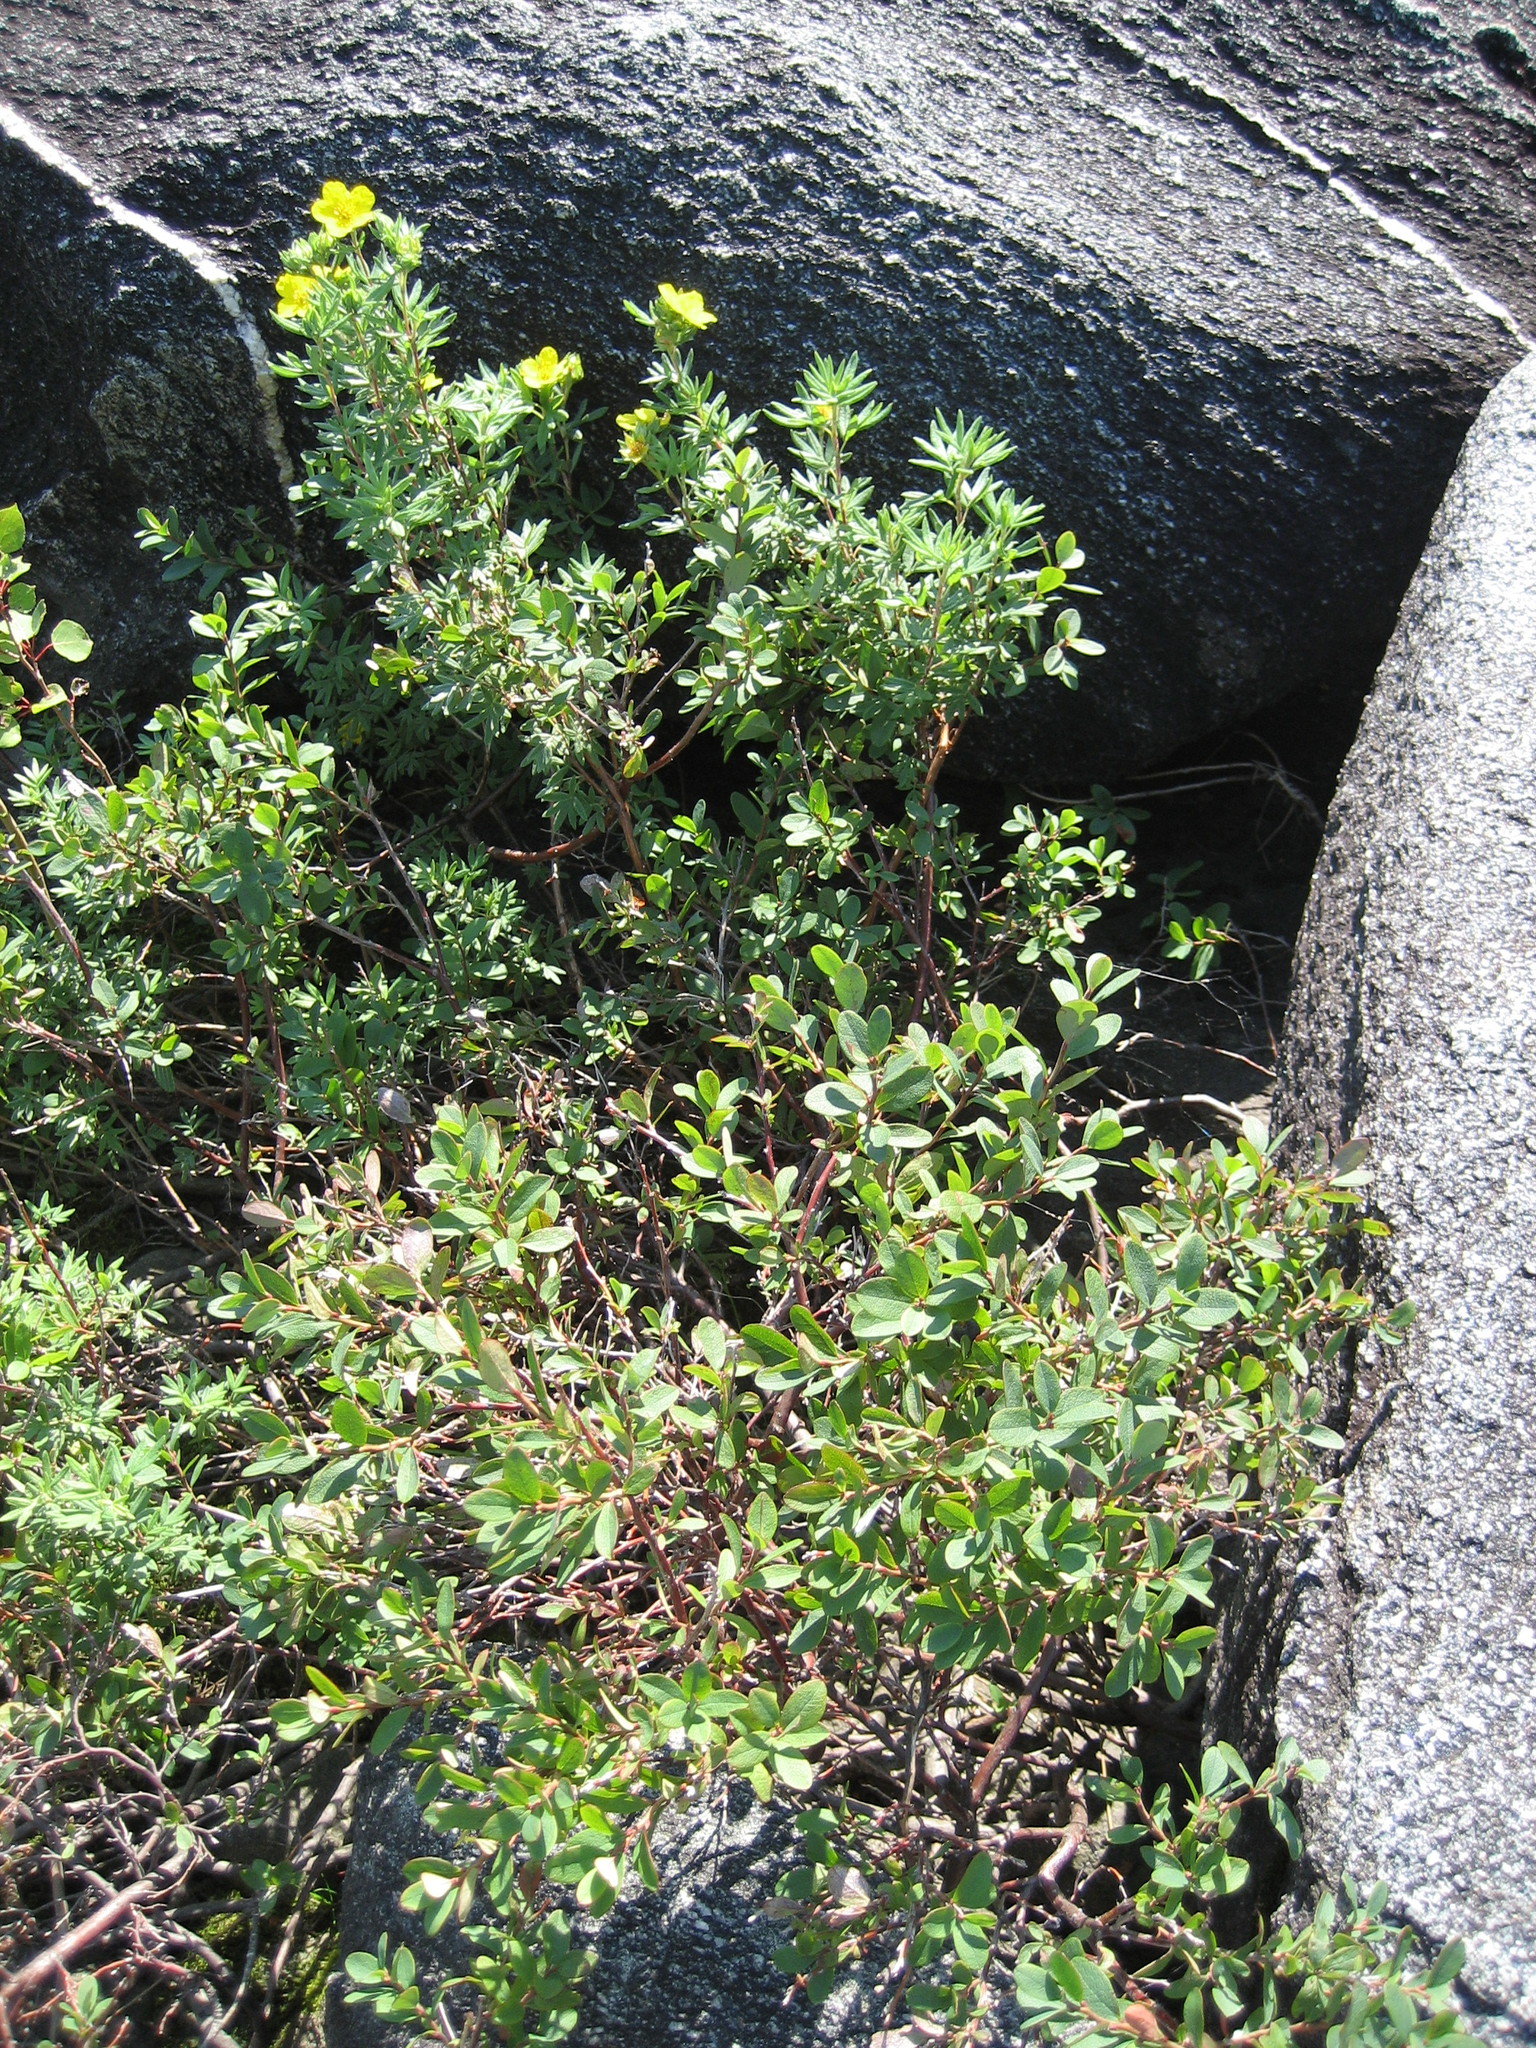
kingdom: Plantae
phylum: Tracheophyta
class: Magnoliopsida
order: Rosales
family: Rosaceae
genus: Dasiphora
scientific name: Dasiphora fruticosa
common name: Shrubby cinquefoil
